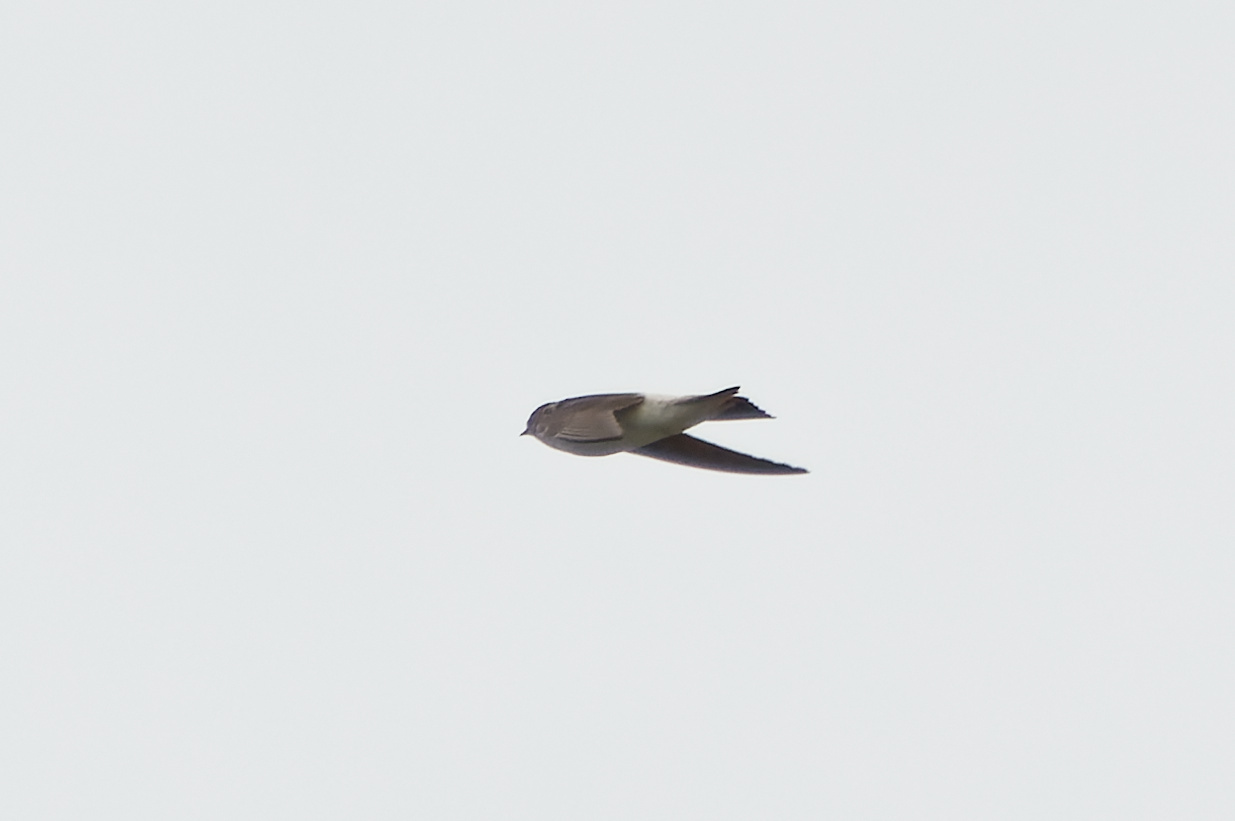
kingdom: Animalia
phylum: Chordata
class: Aves
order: Passeriformes
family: Hirundinidae
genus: Petrochelidon
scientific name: Petrochelidon nigricans
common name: Tree martin
